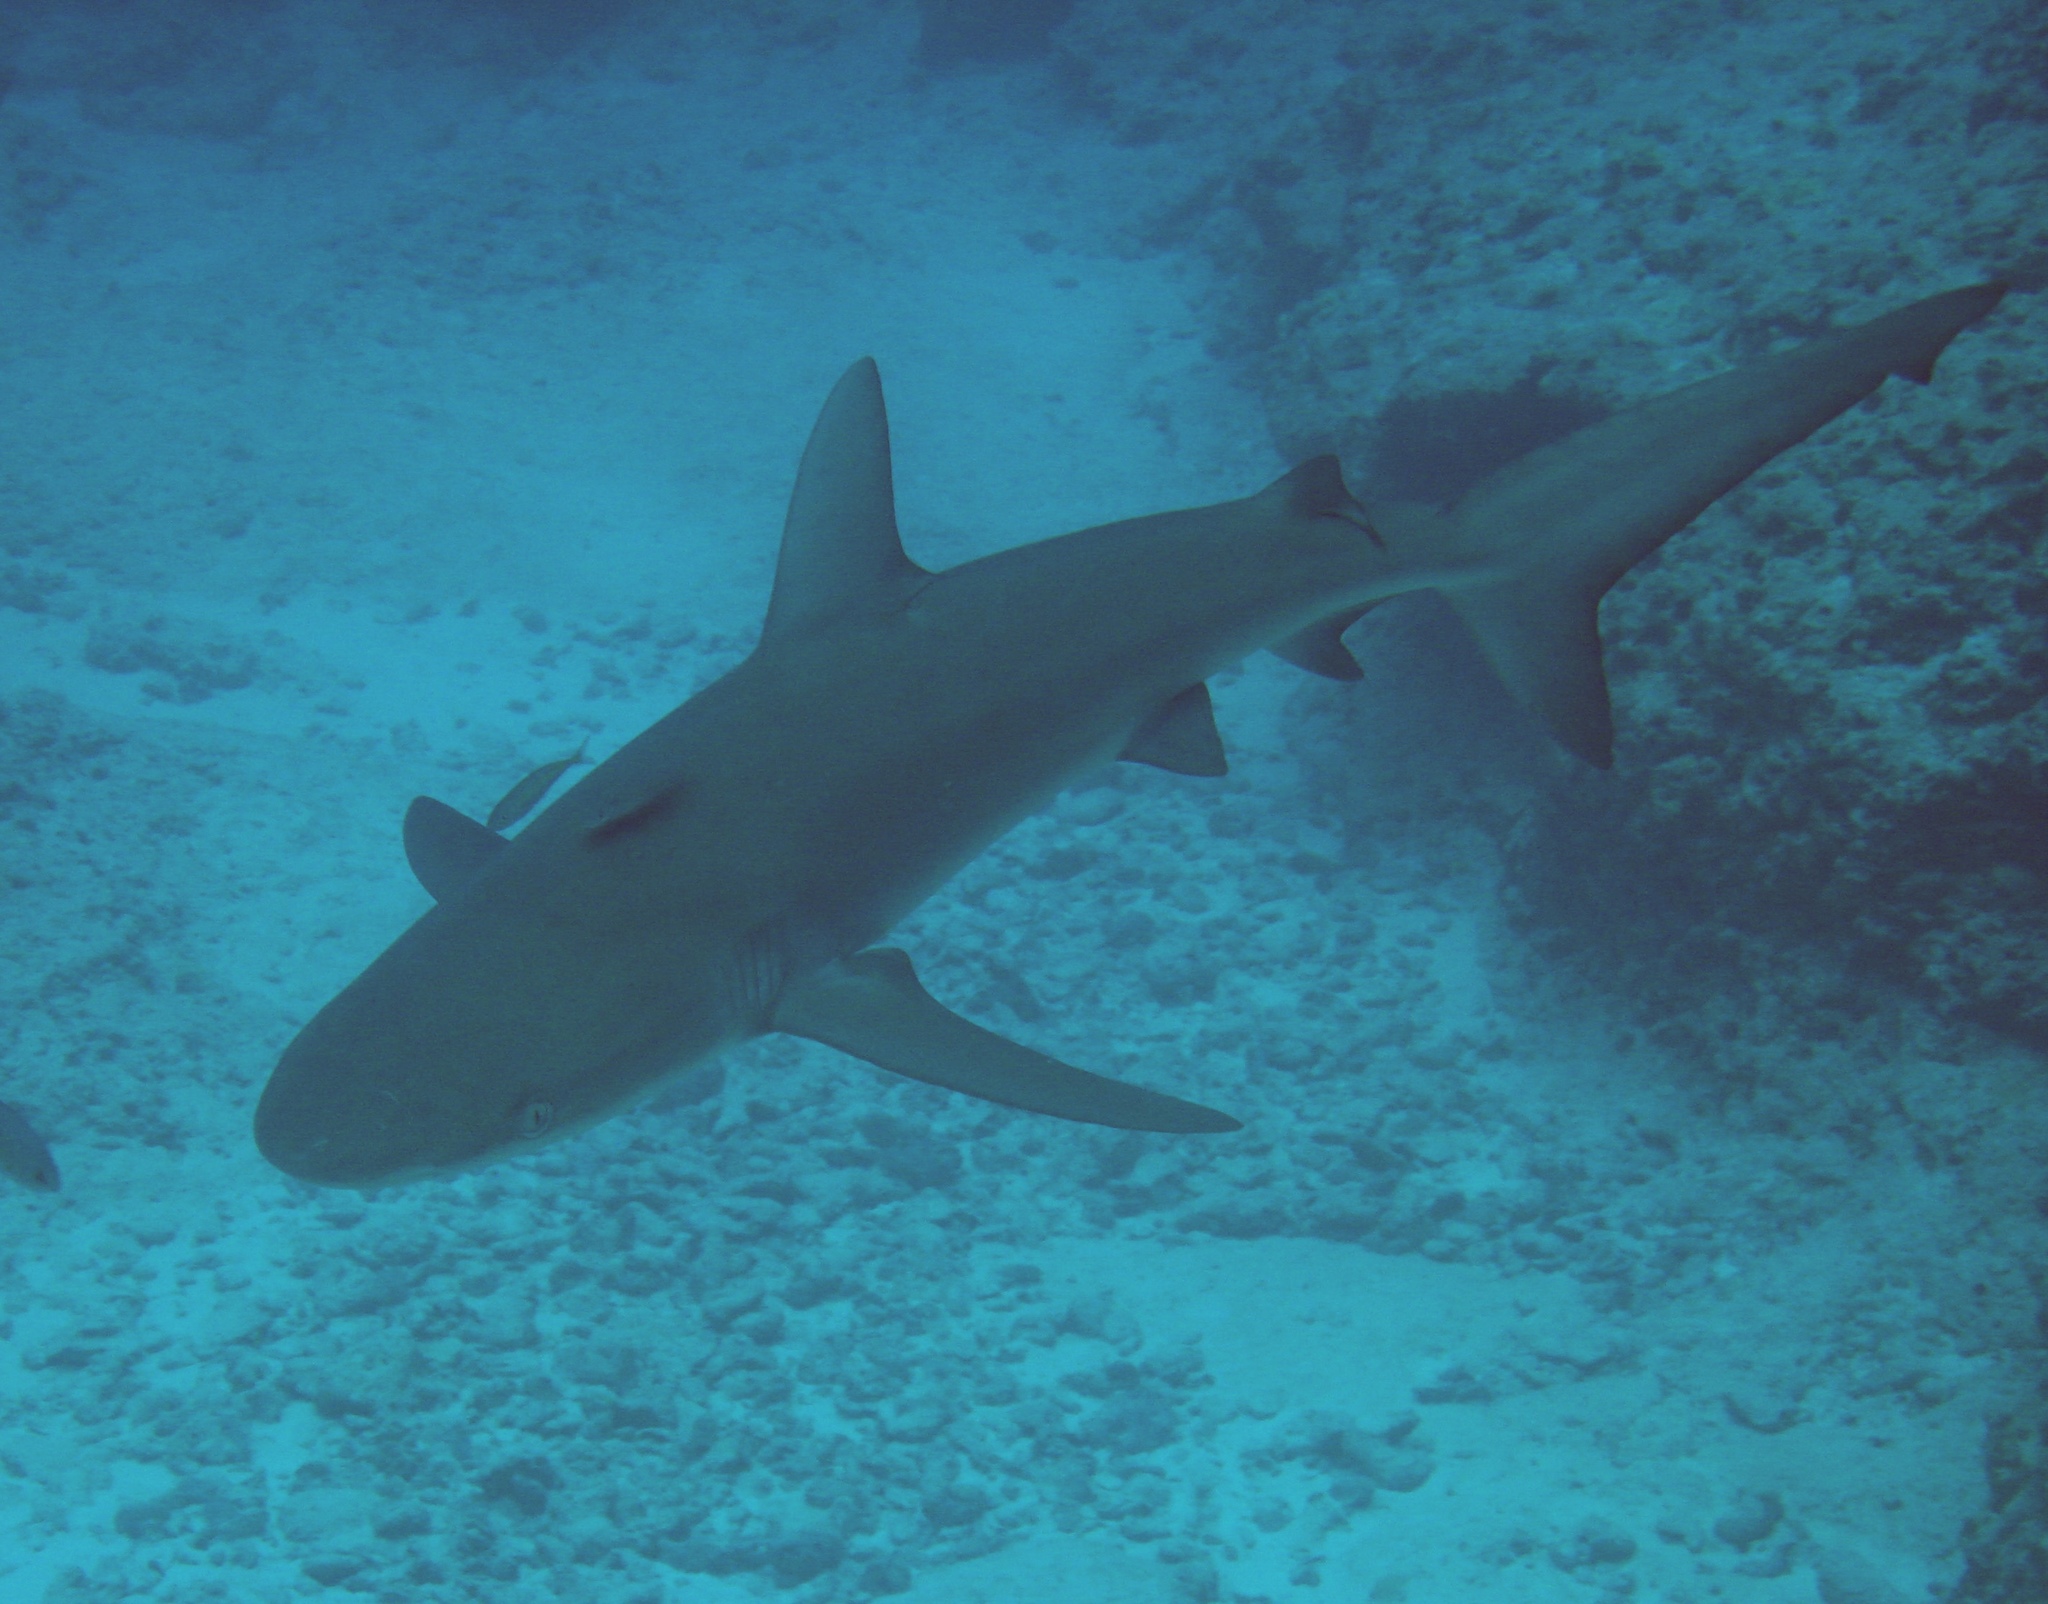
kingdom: Animalia
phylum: Chordata
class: Elasmobranchii
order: Carcharhiniformes
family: Carcharhinidae
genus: Carcharhinus
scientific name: Carcharhinus galapagensis
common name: Galapagos shark
